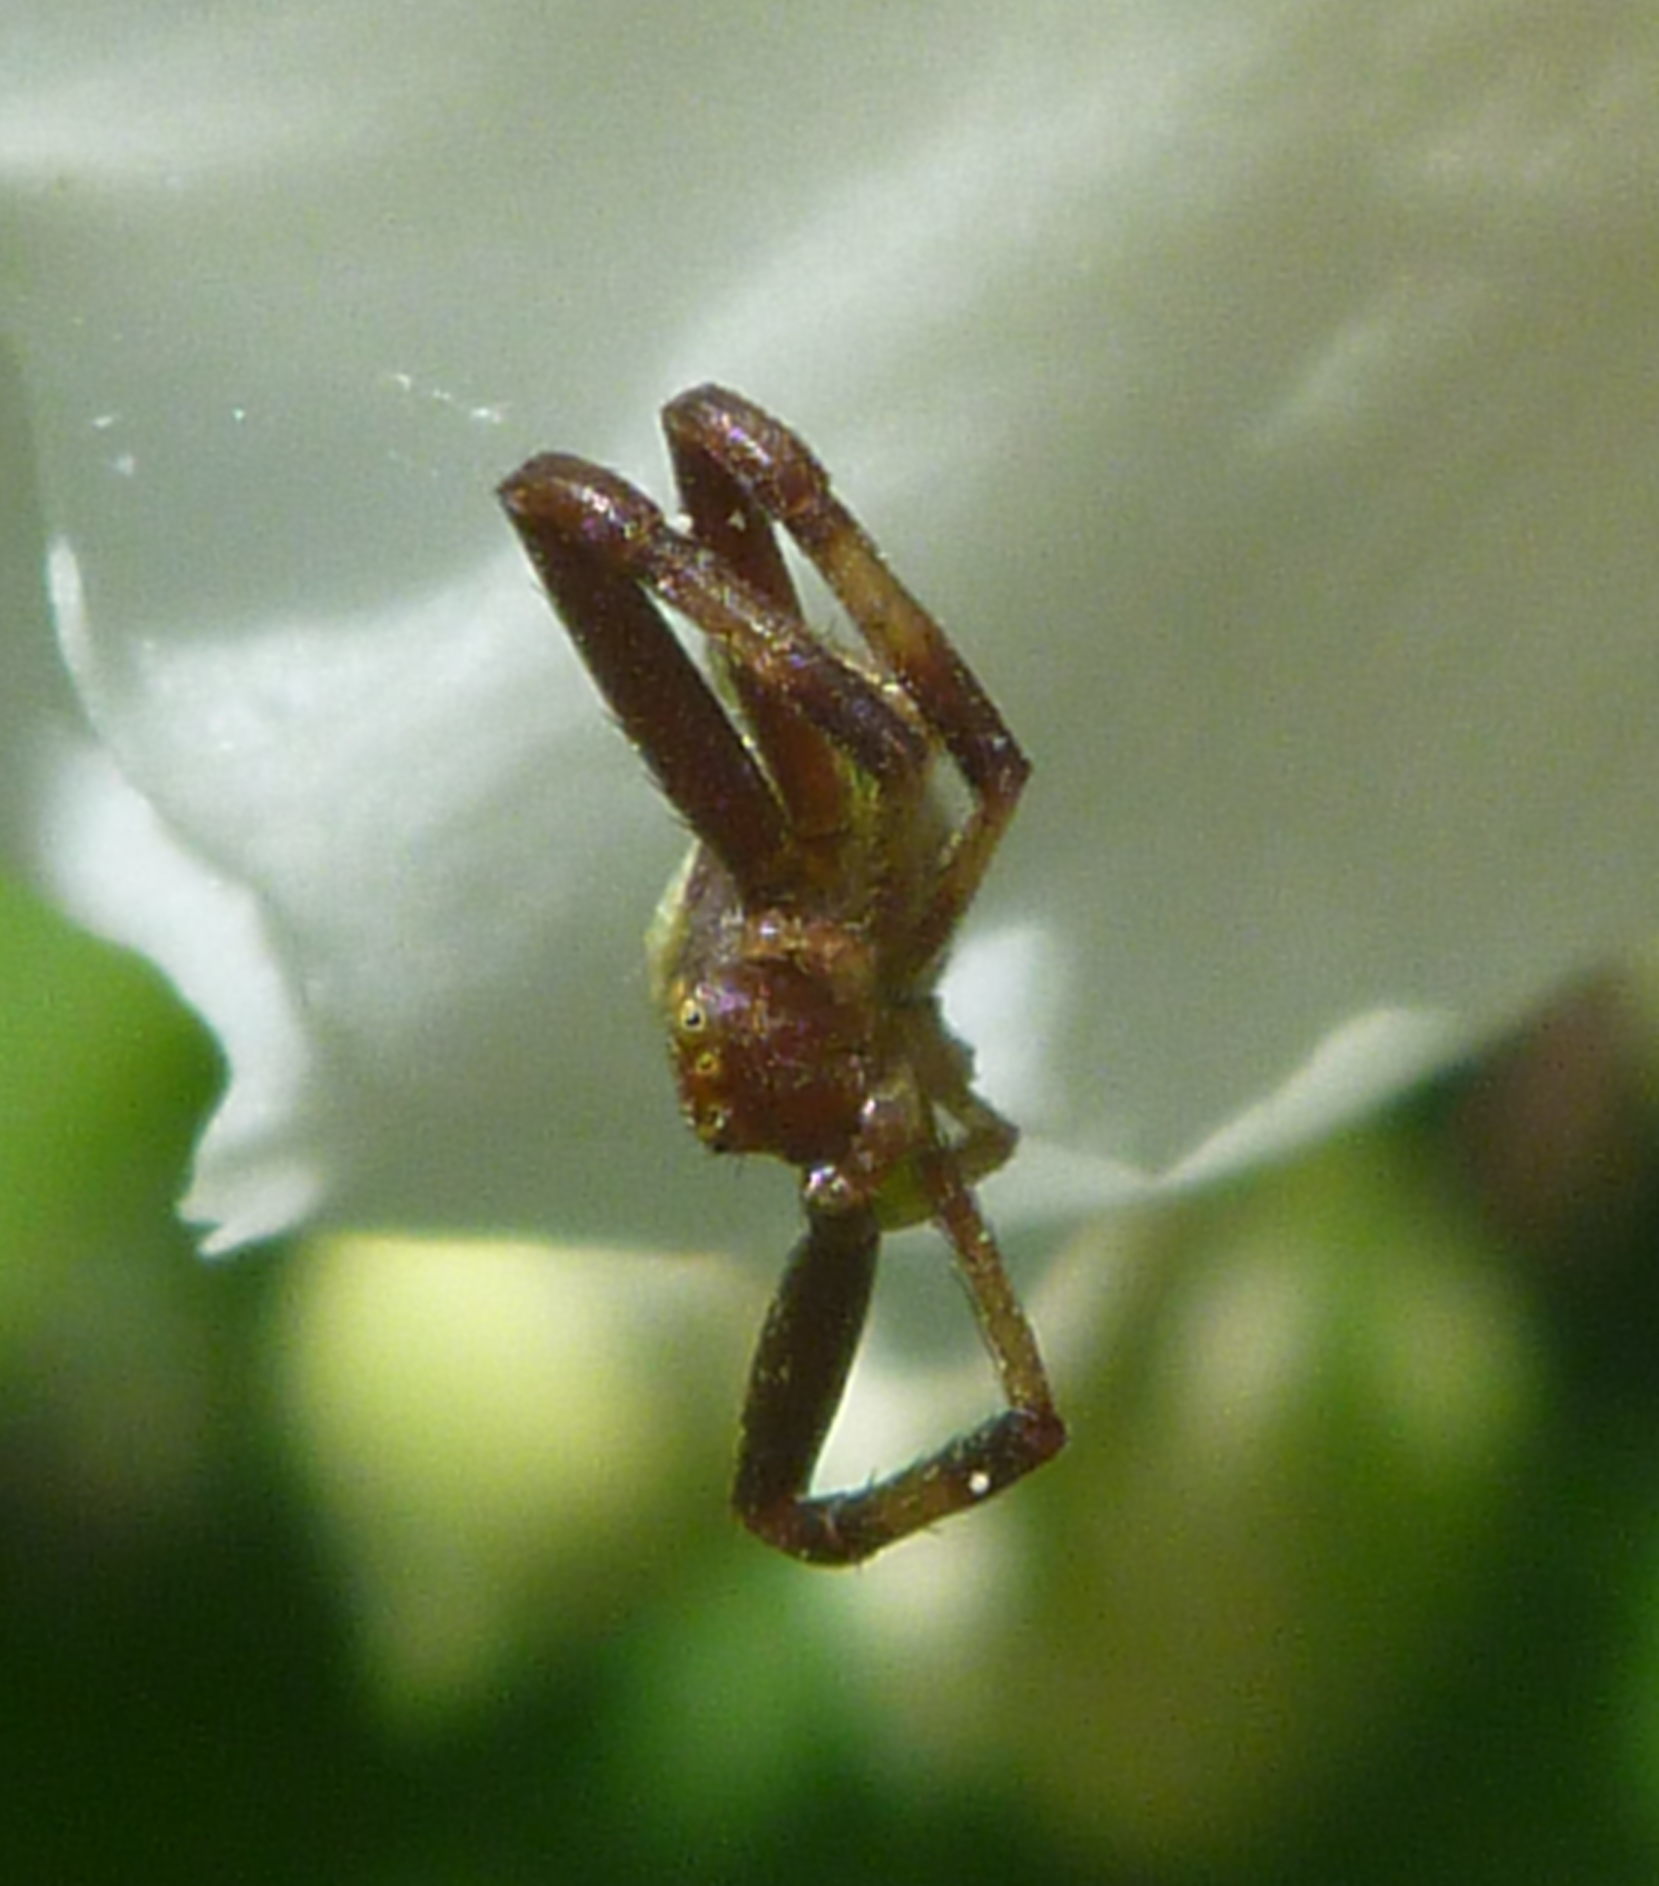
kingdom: Animalia
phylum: Arthropoda
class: Arachnida
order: Araneae
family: Thomisidae
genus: Ebrechtella
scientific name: Ebrechtella tricuspidata
